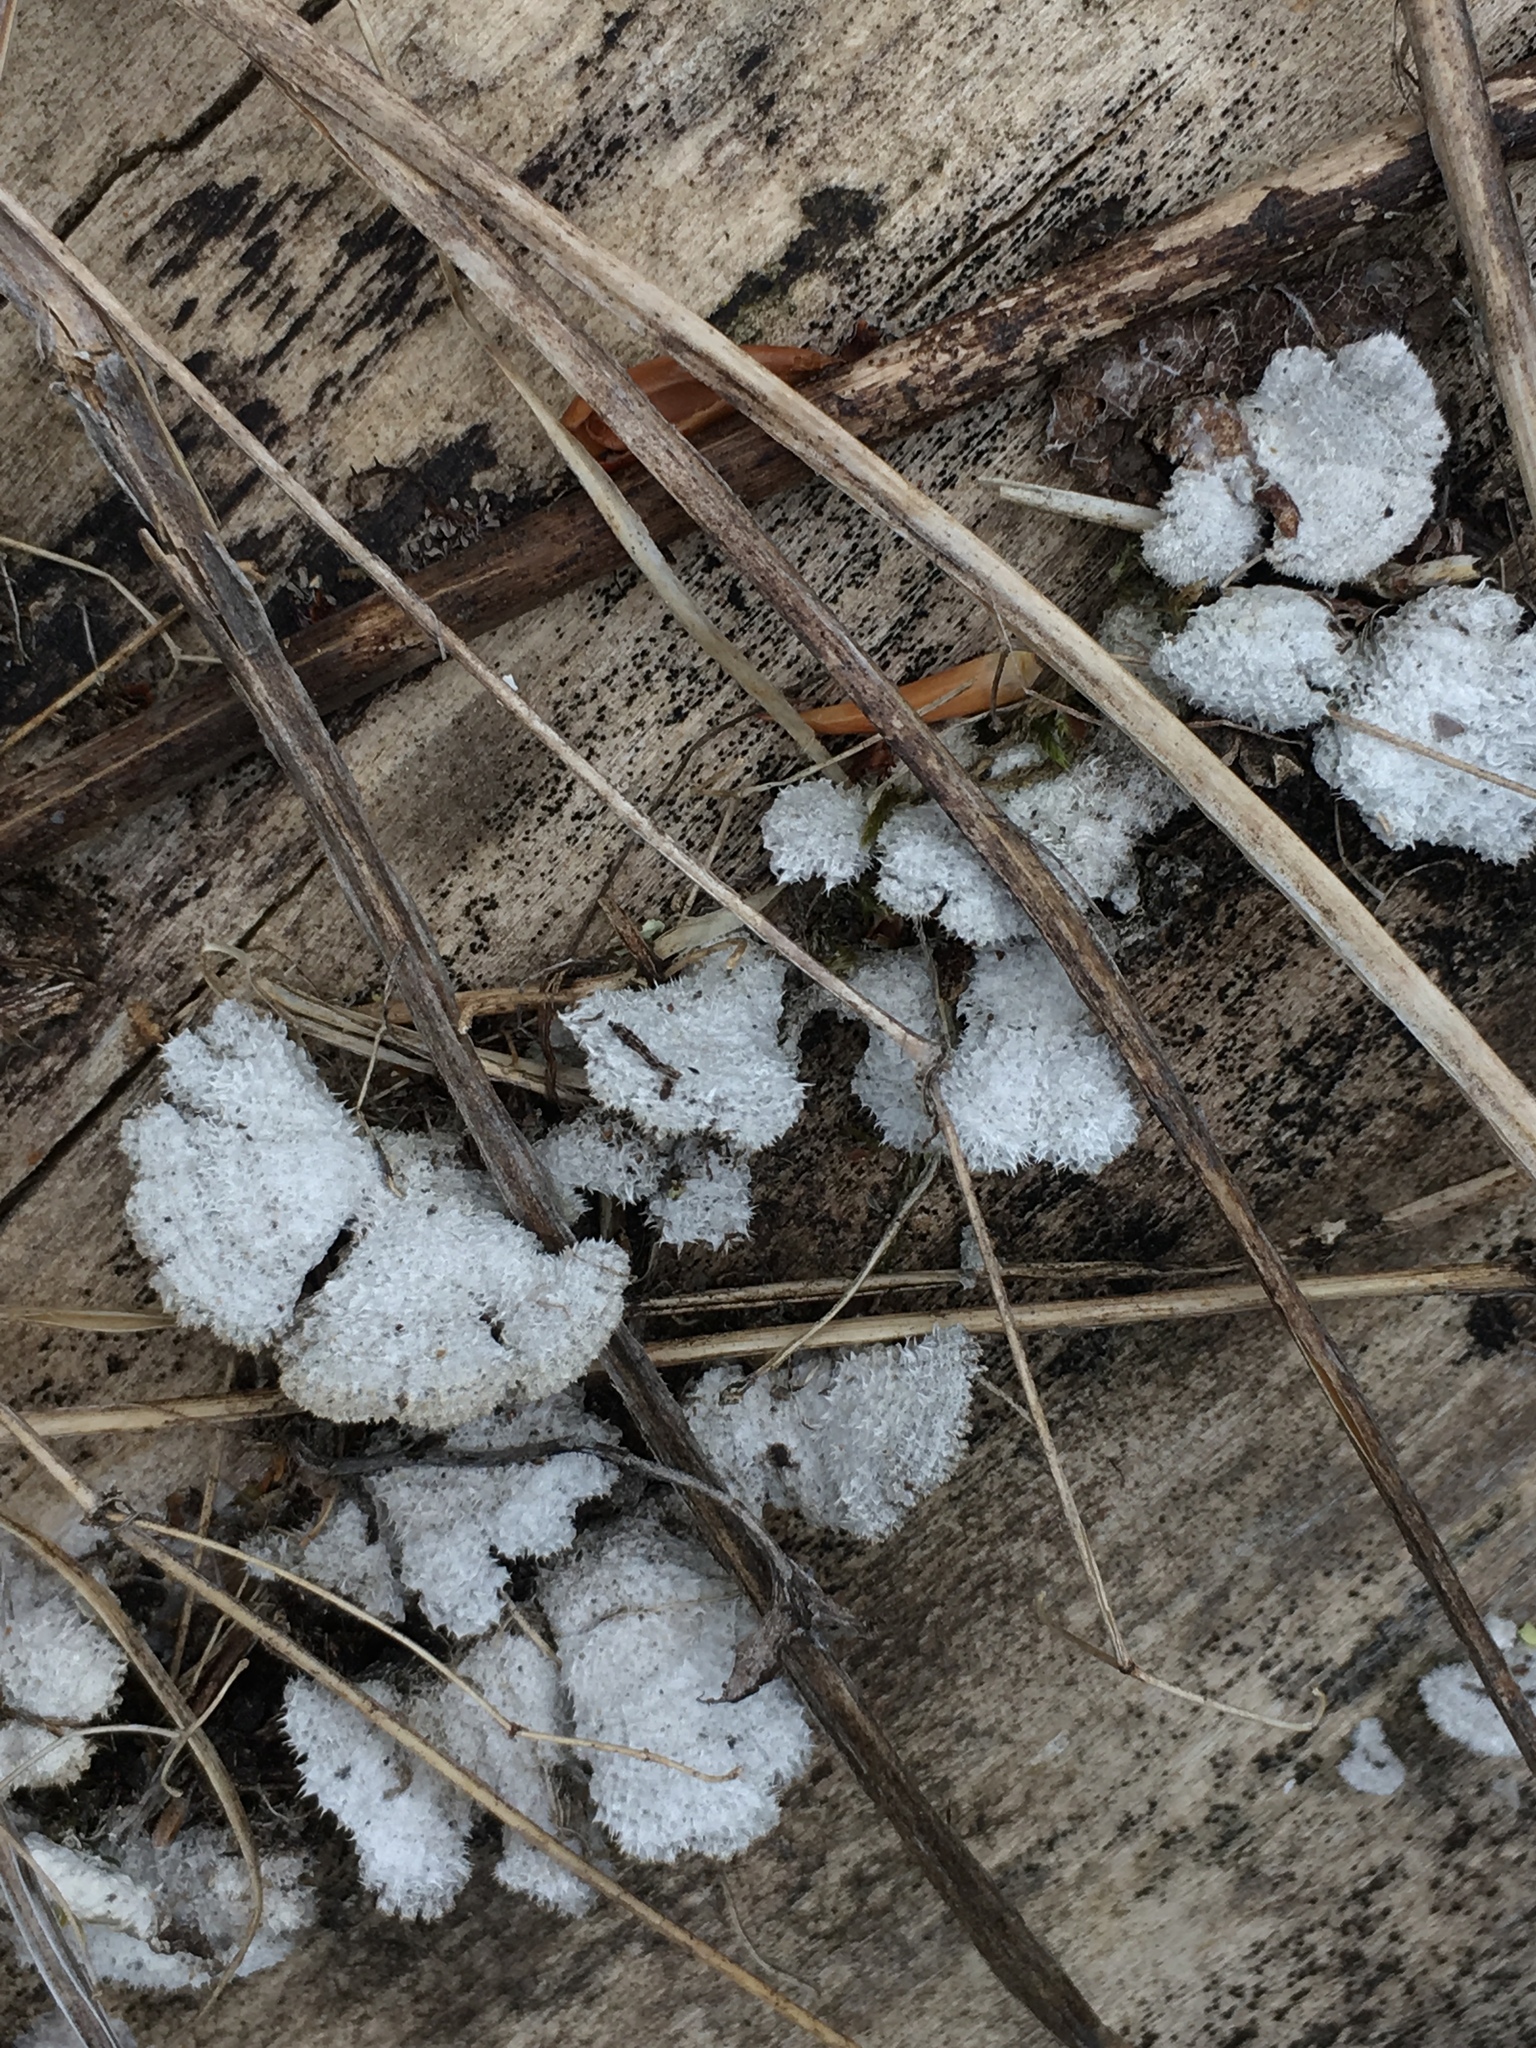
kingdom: Fungi
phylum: Basidiomycota
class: Agaricomycetes
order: Agaricales
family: Schizophyllaceae
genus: Schizophyllum
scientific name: Schizophyllum commune
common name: Common porecrust
